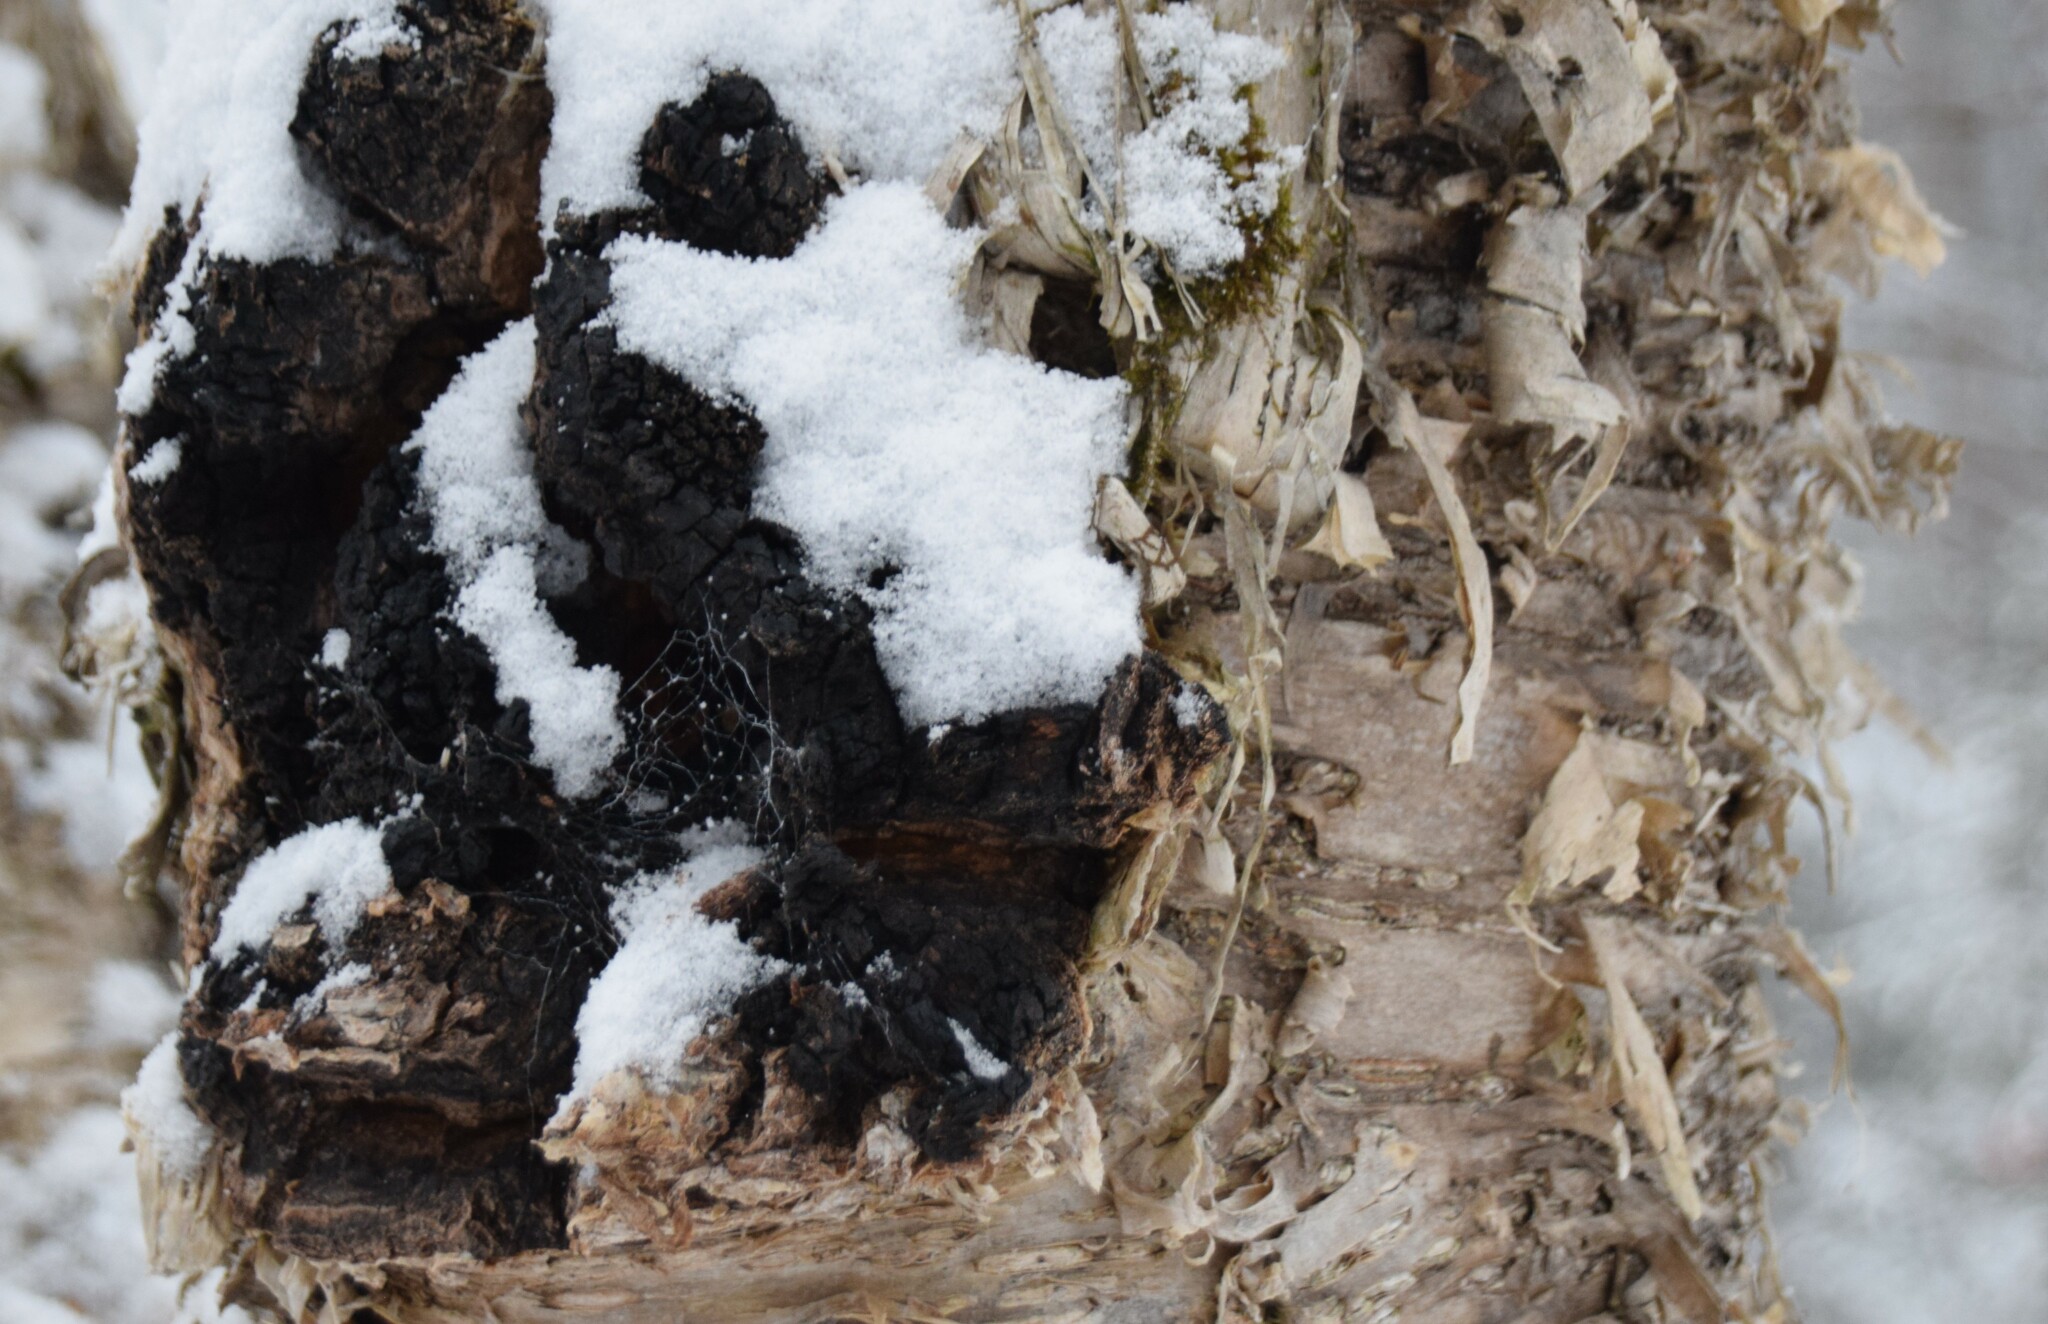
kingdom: Fungi
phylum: Basidiomycota
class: Agaricomycetes
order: Hymenochaetales
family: Hymenochaetaceae
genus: Inonotus
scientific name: Inonotus obliquus
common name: Chaga
